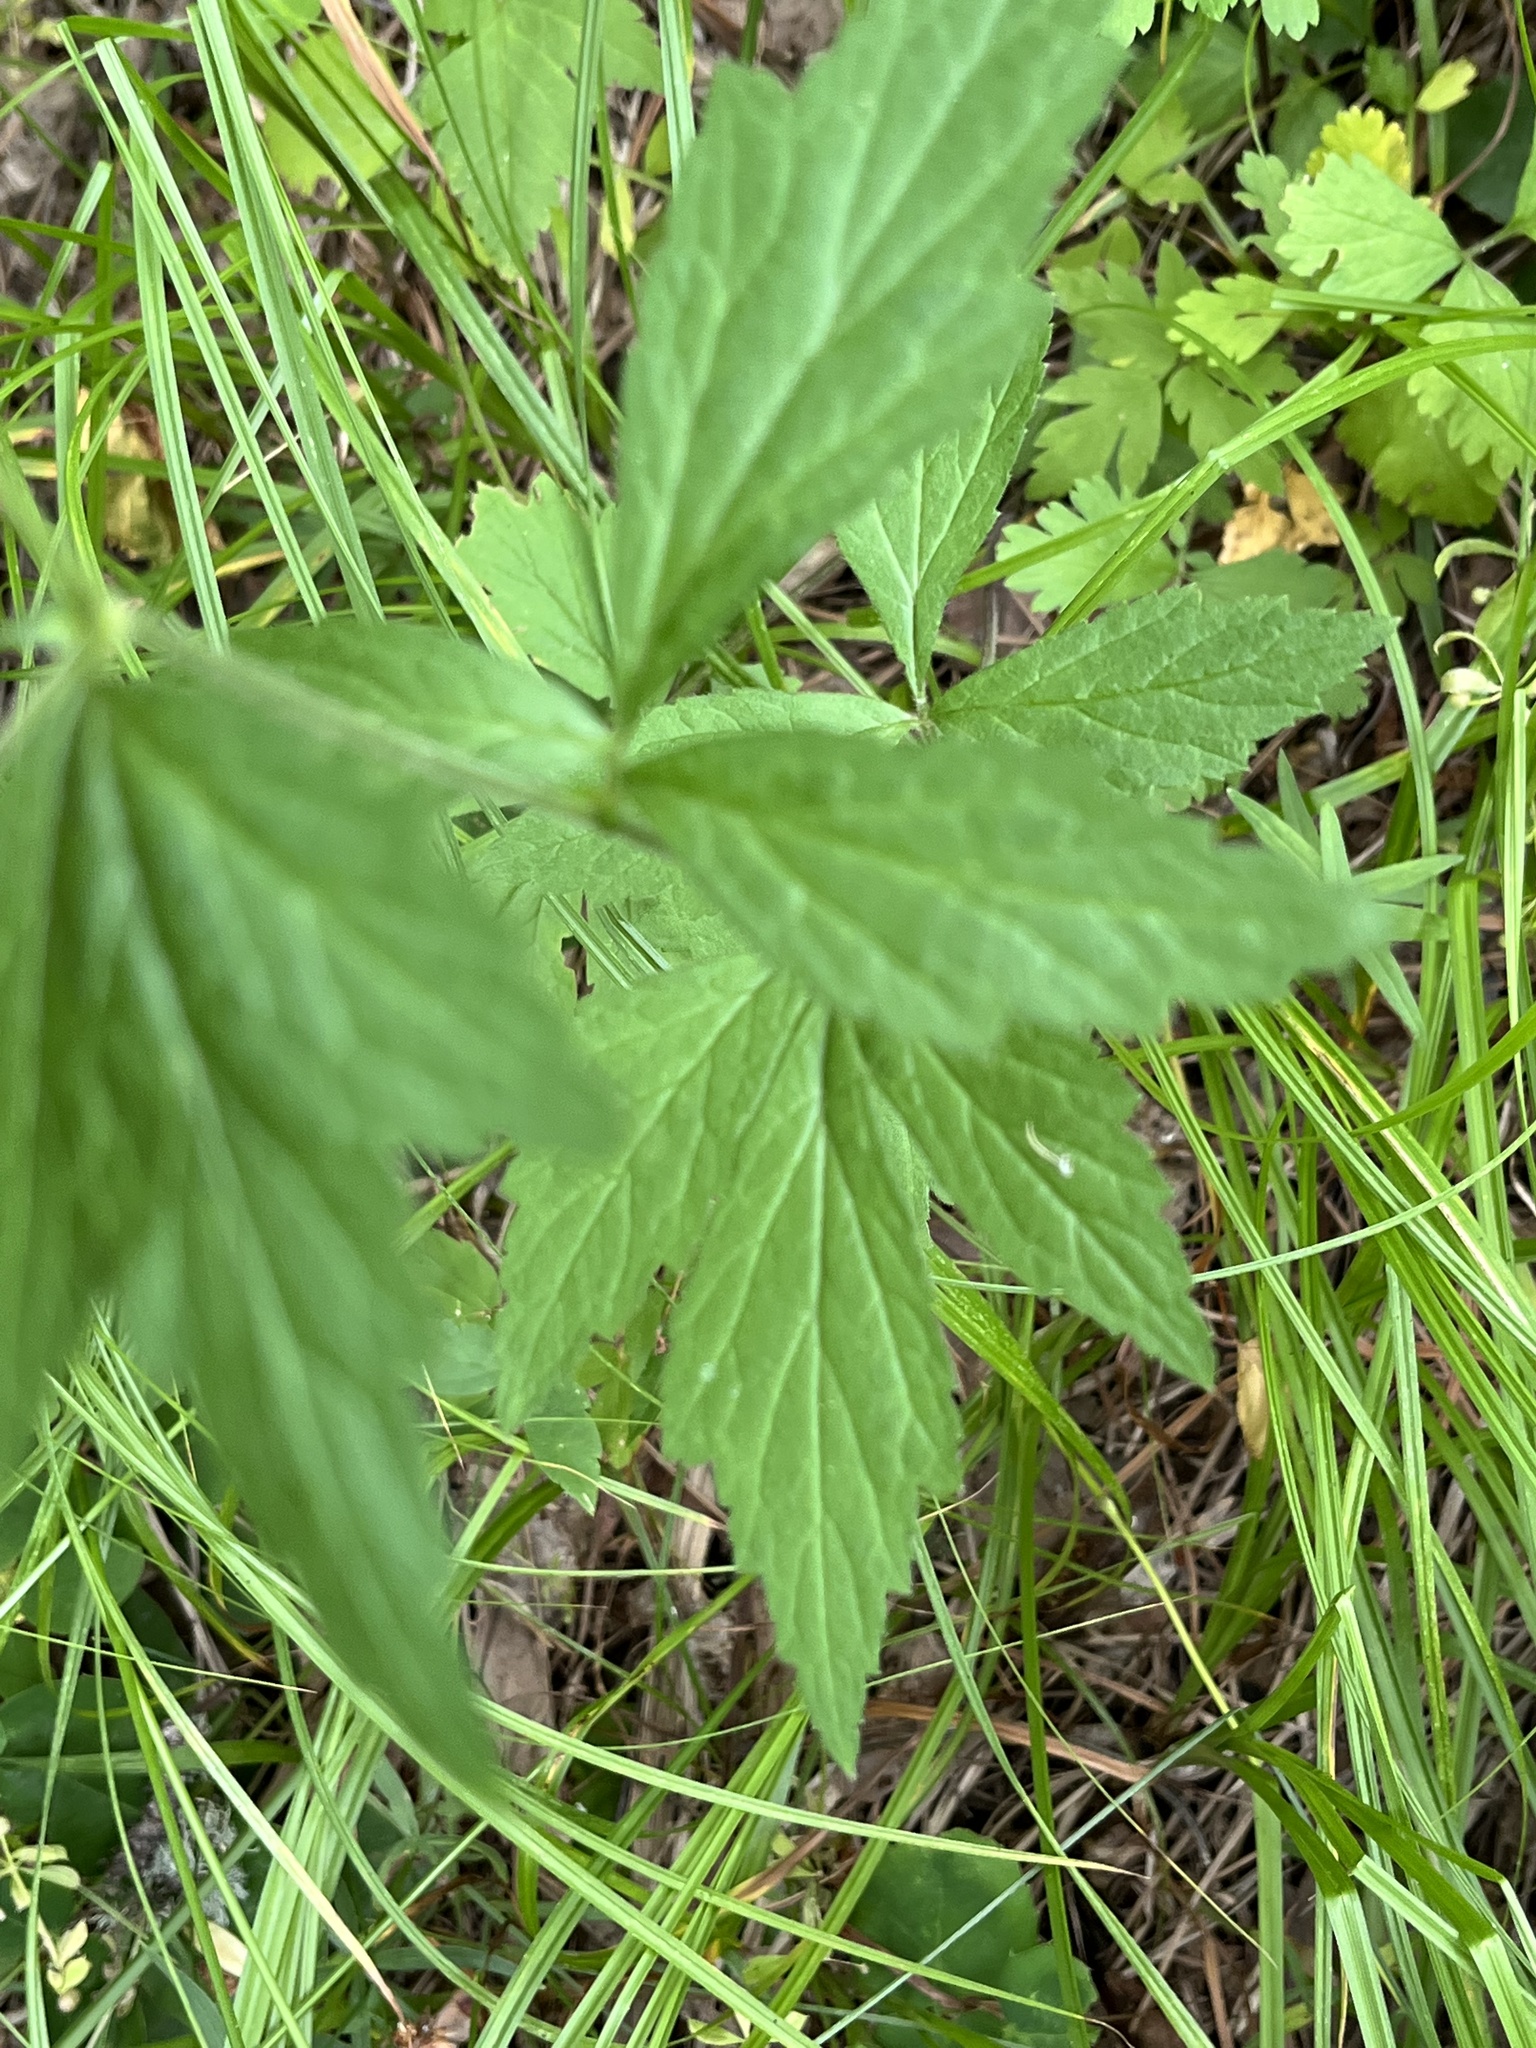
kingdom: Plantae
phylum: Tracheophyta
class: Magnoliopsida
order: Rosales
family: Rosaceae
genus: Geum
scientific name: Geum canadense
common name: White avens
